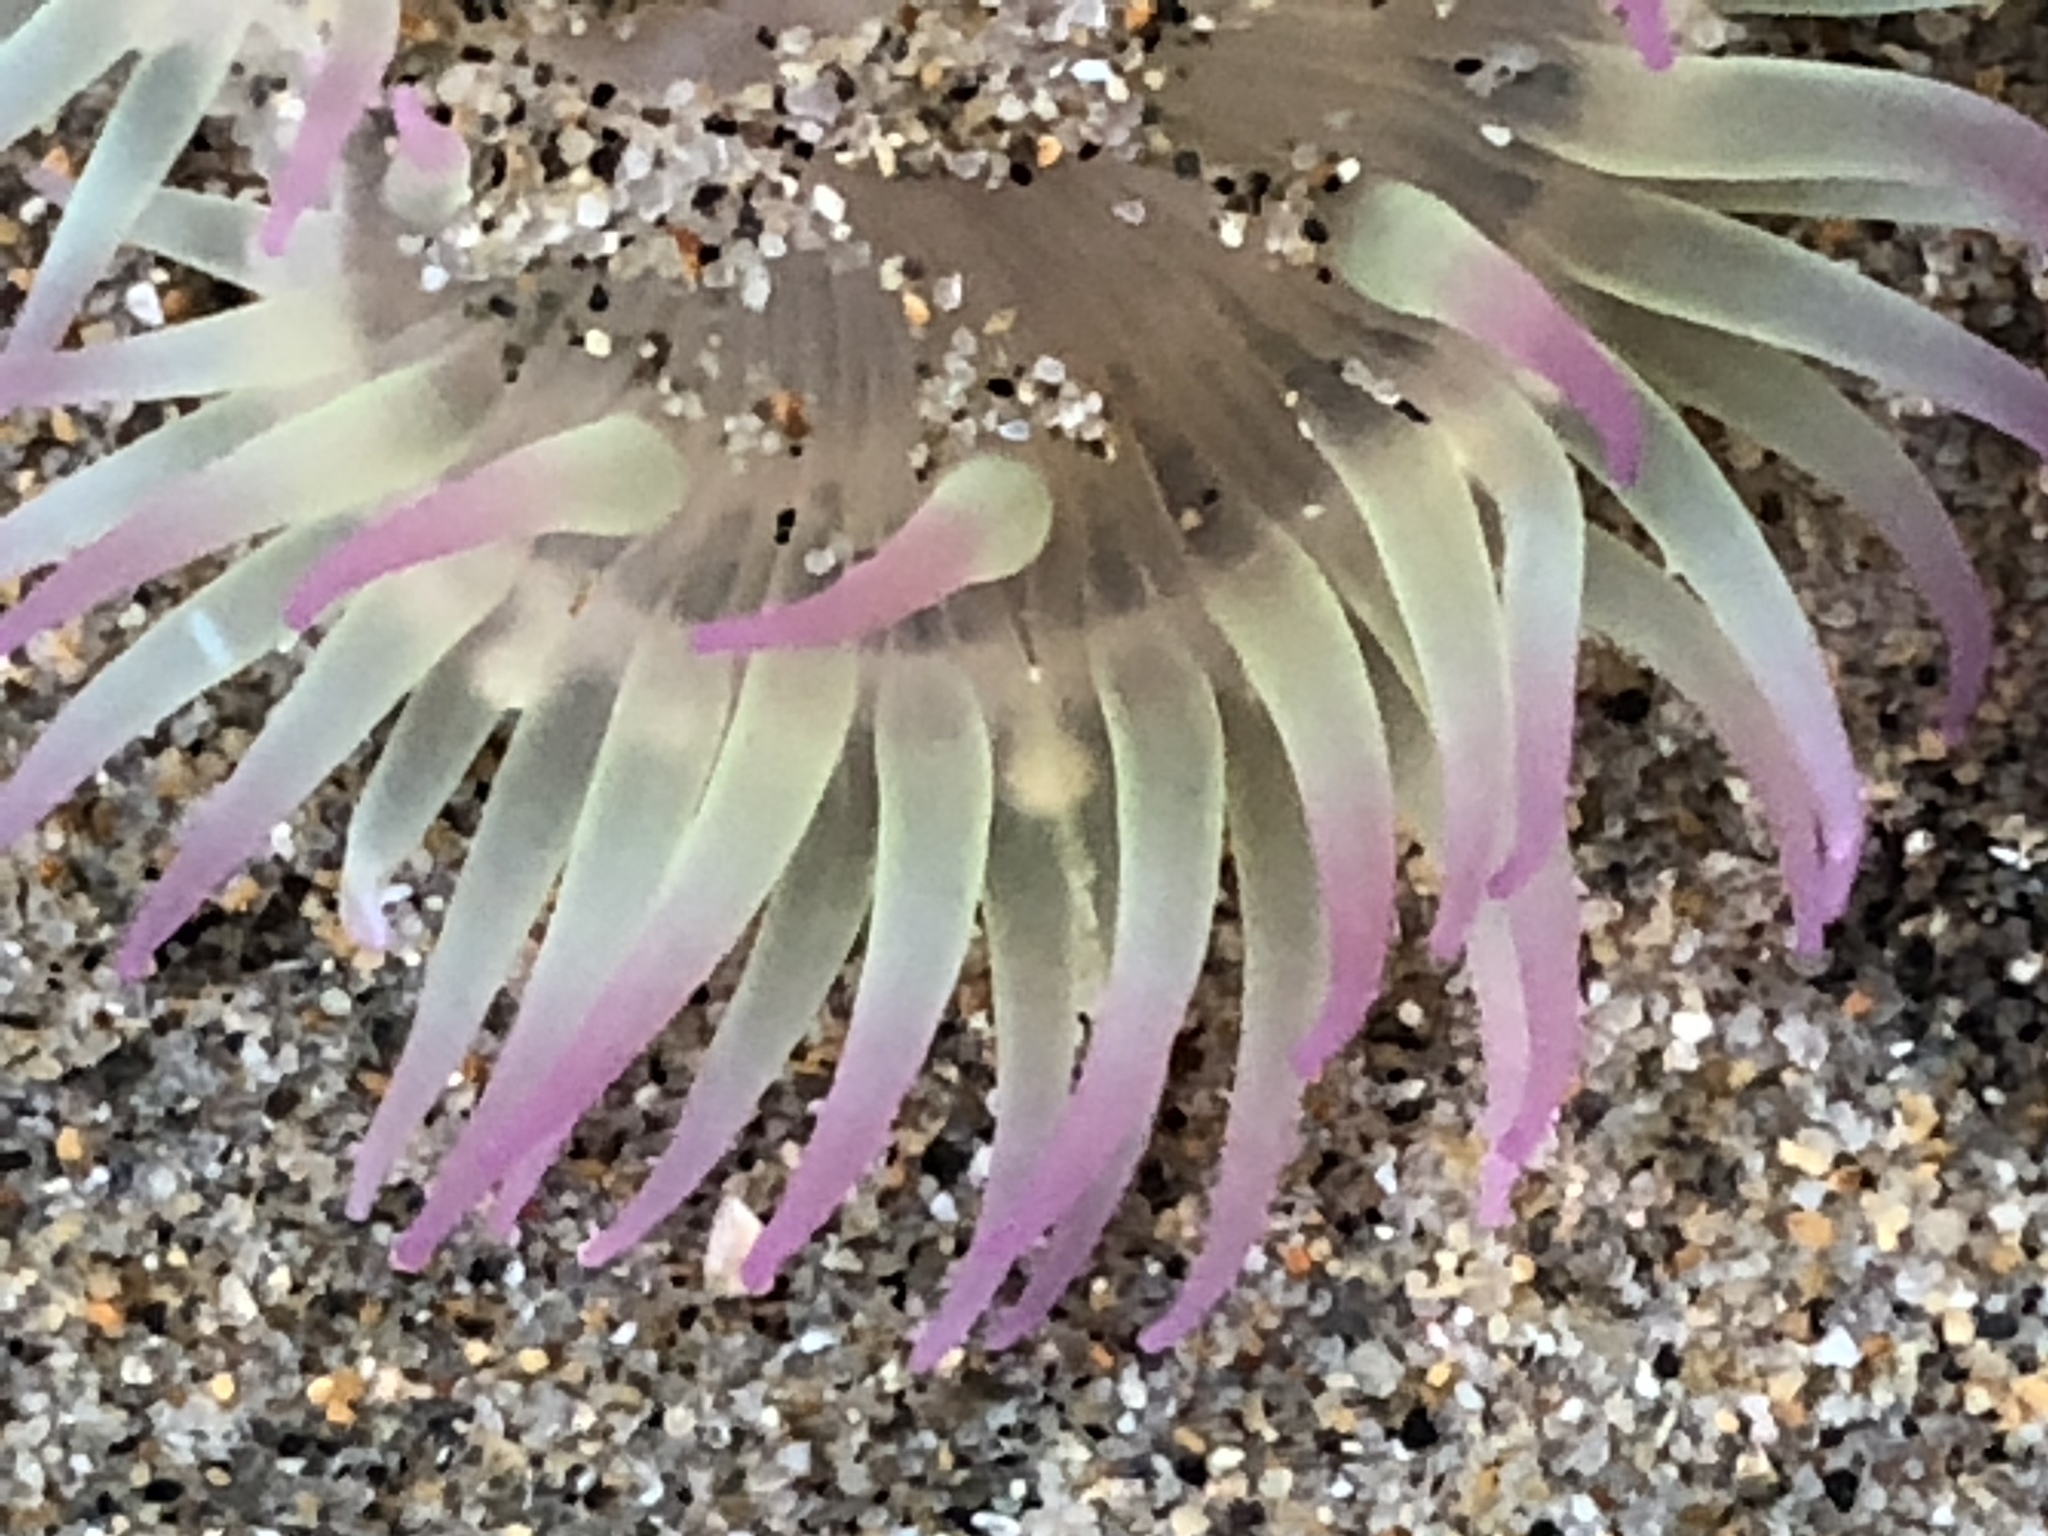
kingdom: Animalia
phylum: Cnidaria
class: Anthozoa
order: Actiniaria
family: Actiniidae
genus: Anthopleura
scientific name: Anthopleura elegantissima
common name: Clonal anemone
